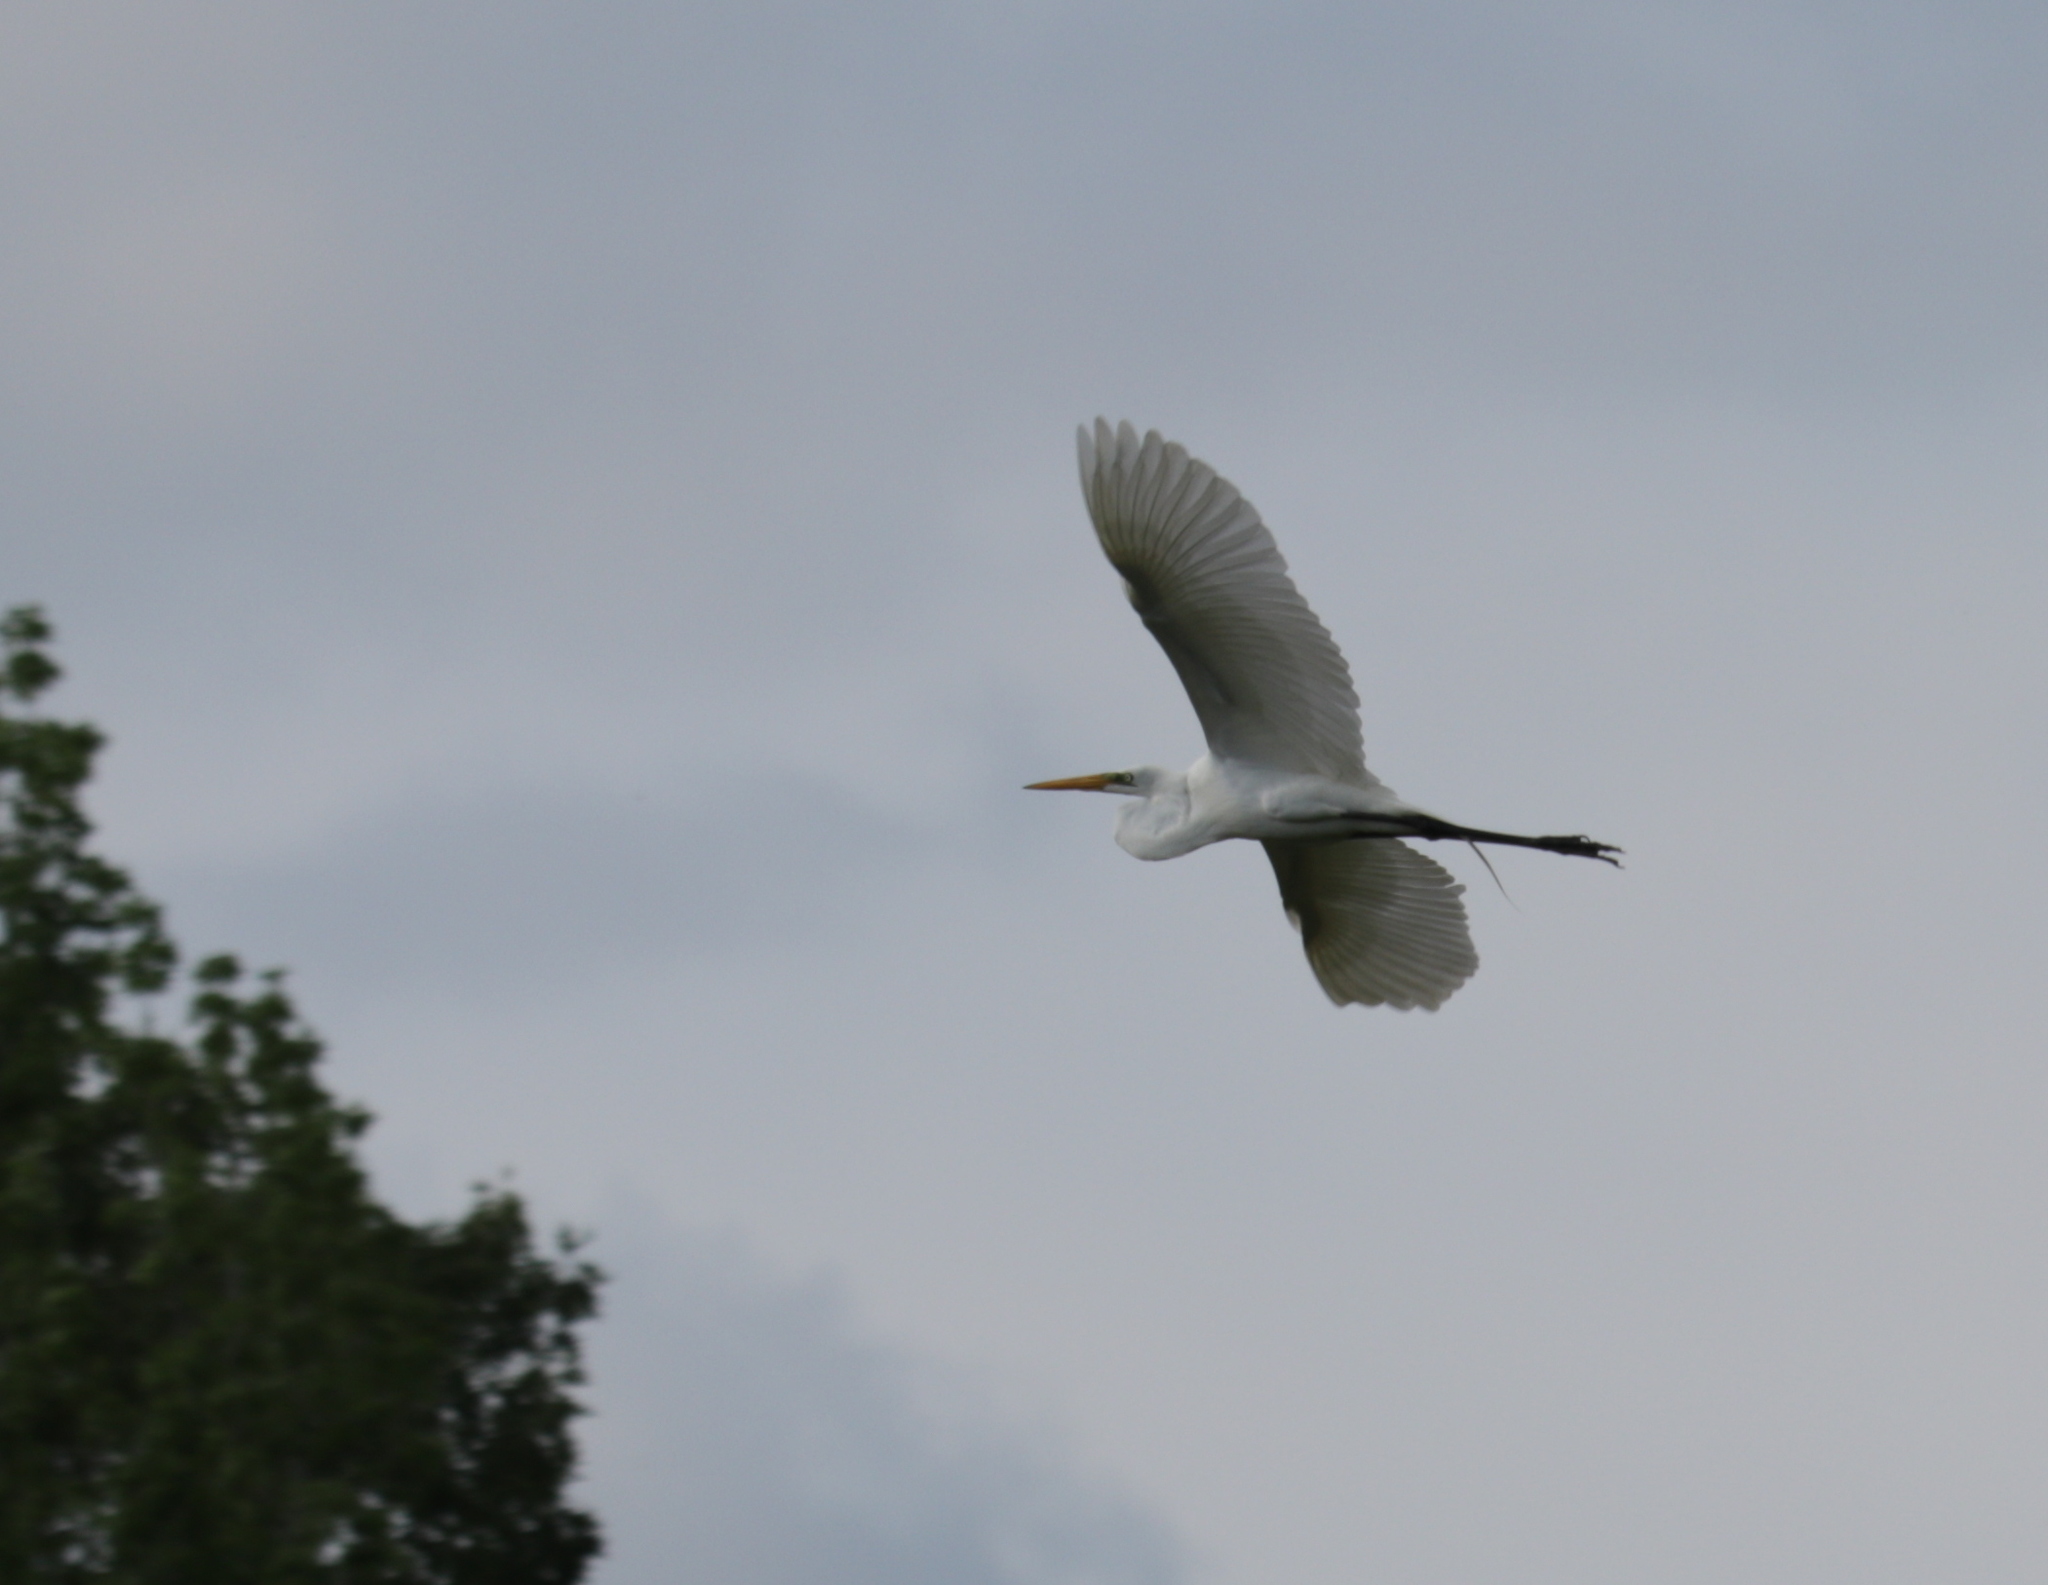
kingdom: Animalia
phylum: Chordata
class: Aves
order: Pelecaniformes
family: Ardeidae
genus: Ardea
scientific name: Ardea alba
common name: Great egret
